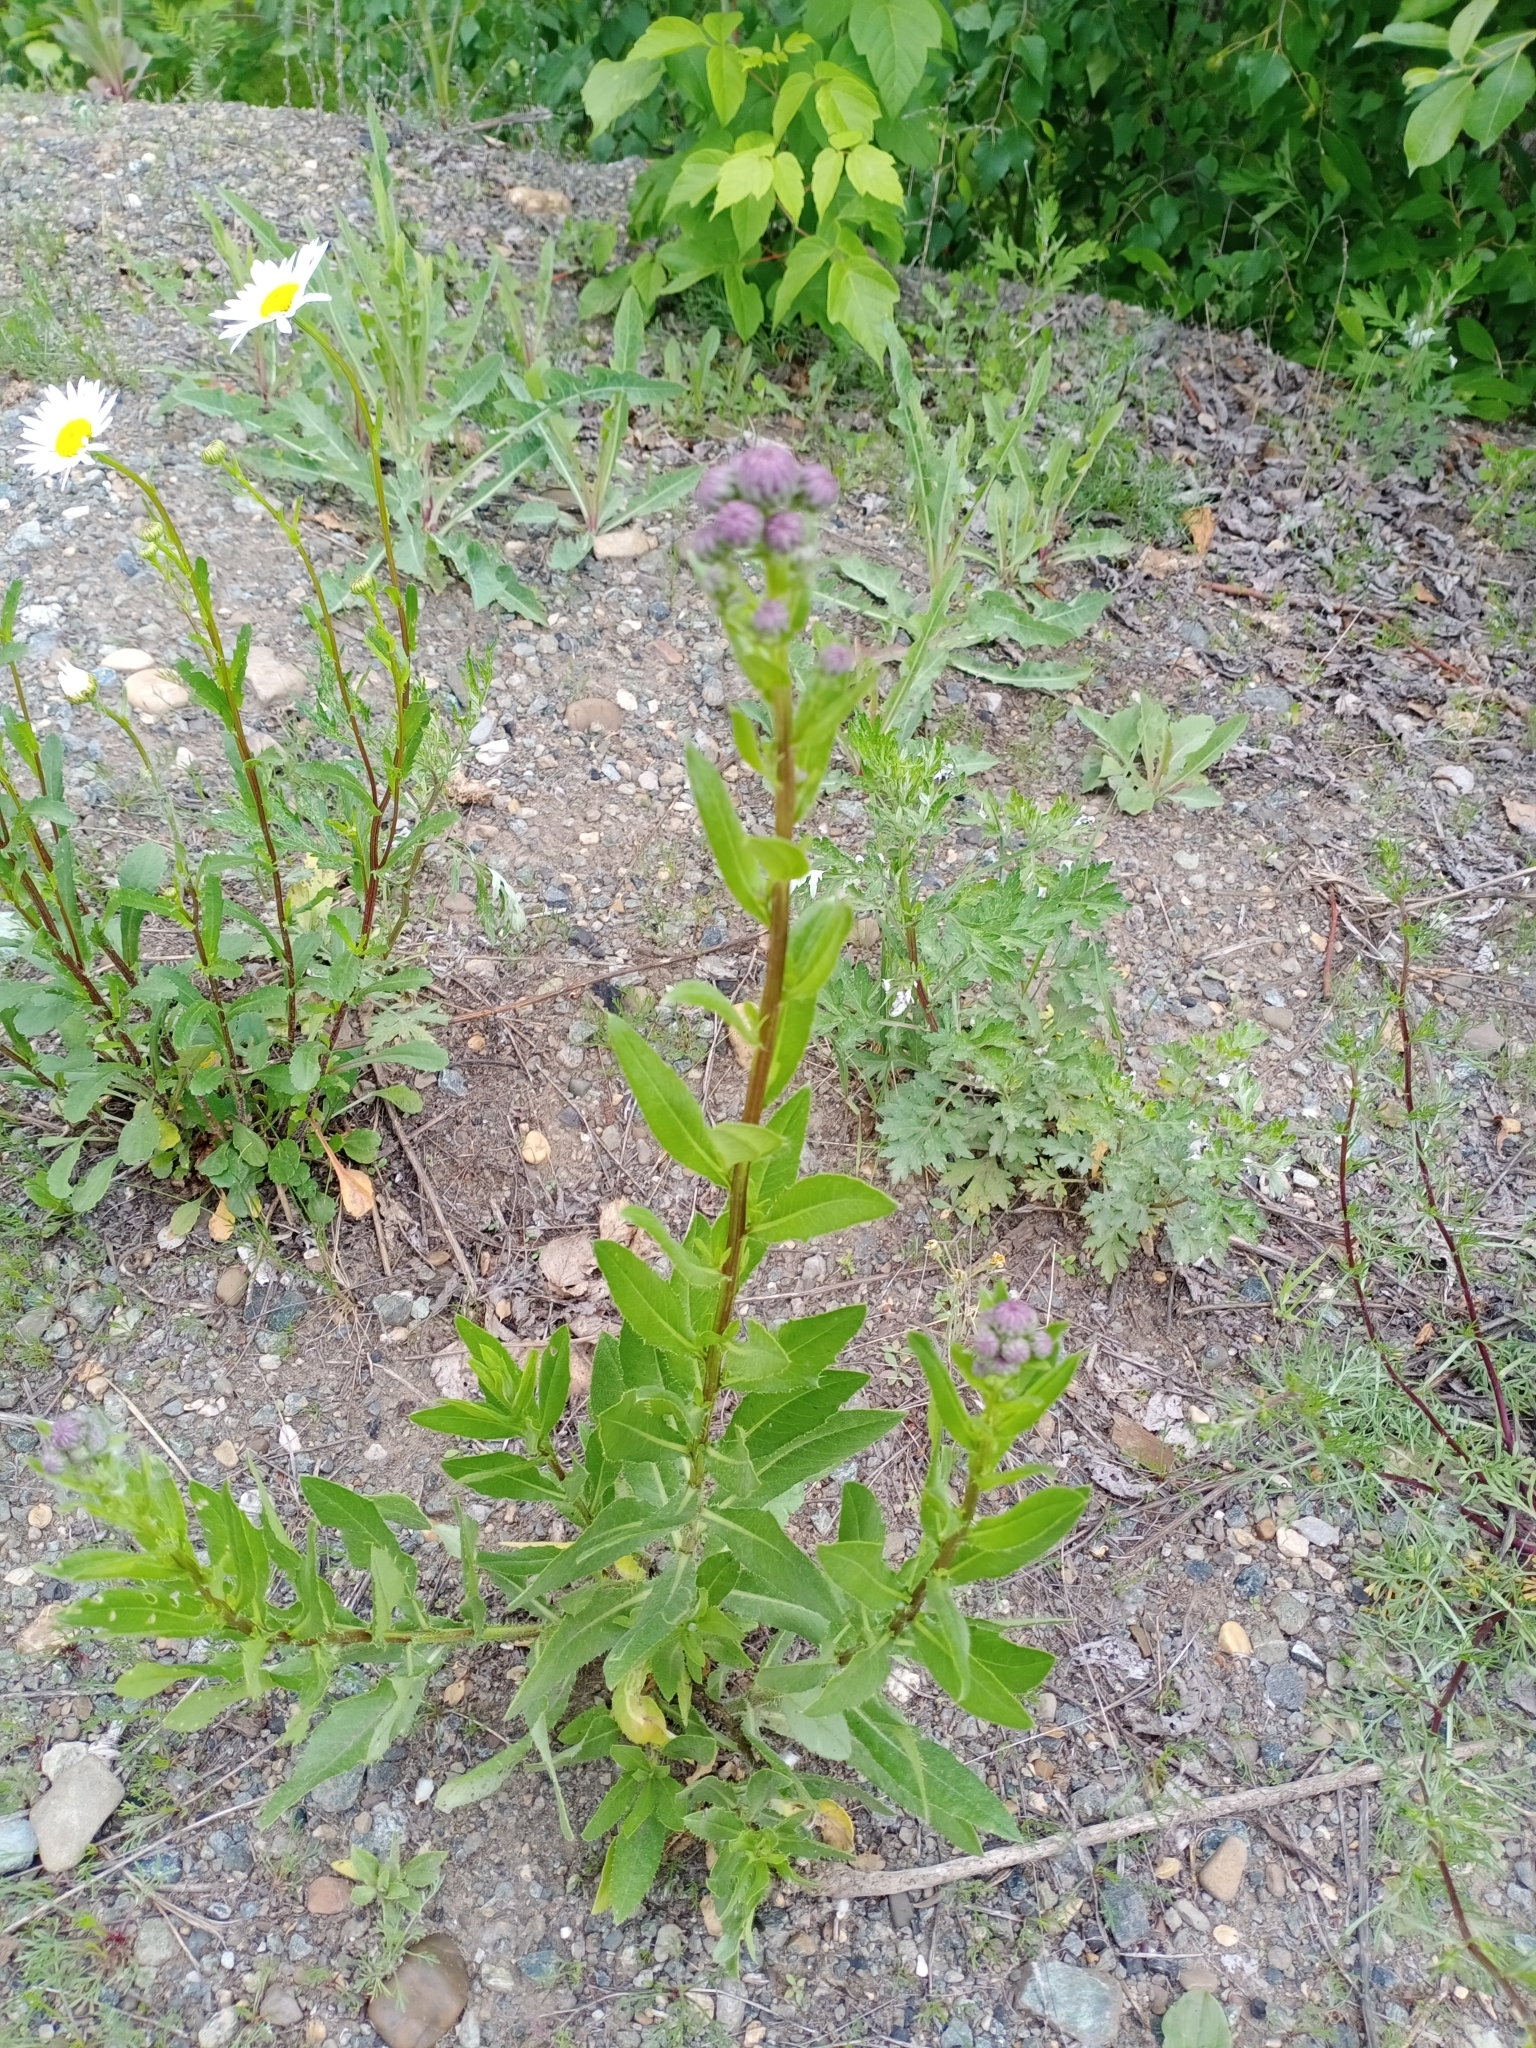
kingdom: Plantae
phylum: Tracheophyta
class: Magnoliopsida
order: Asterales
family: Asteraceae
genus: Cirsium
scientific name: Cirsium arvense
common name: Creeping thistle
